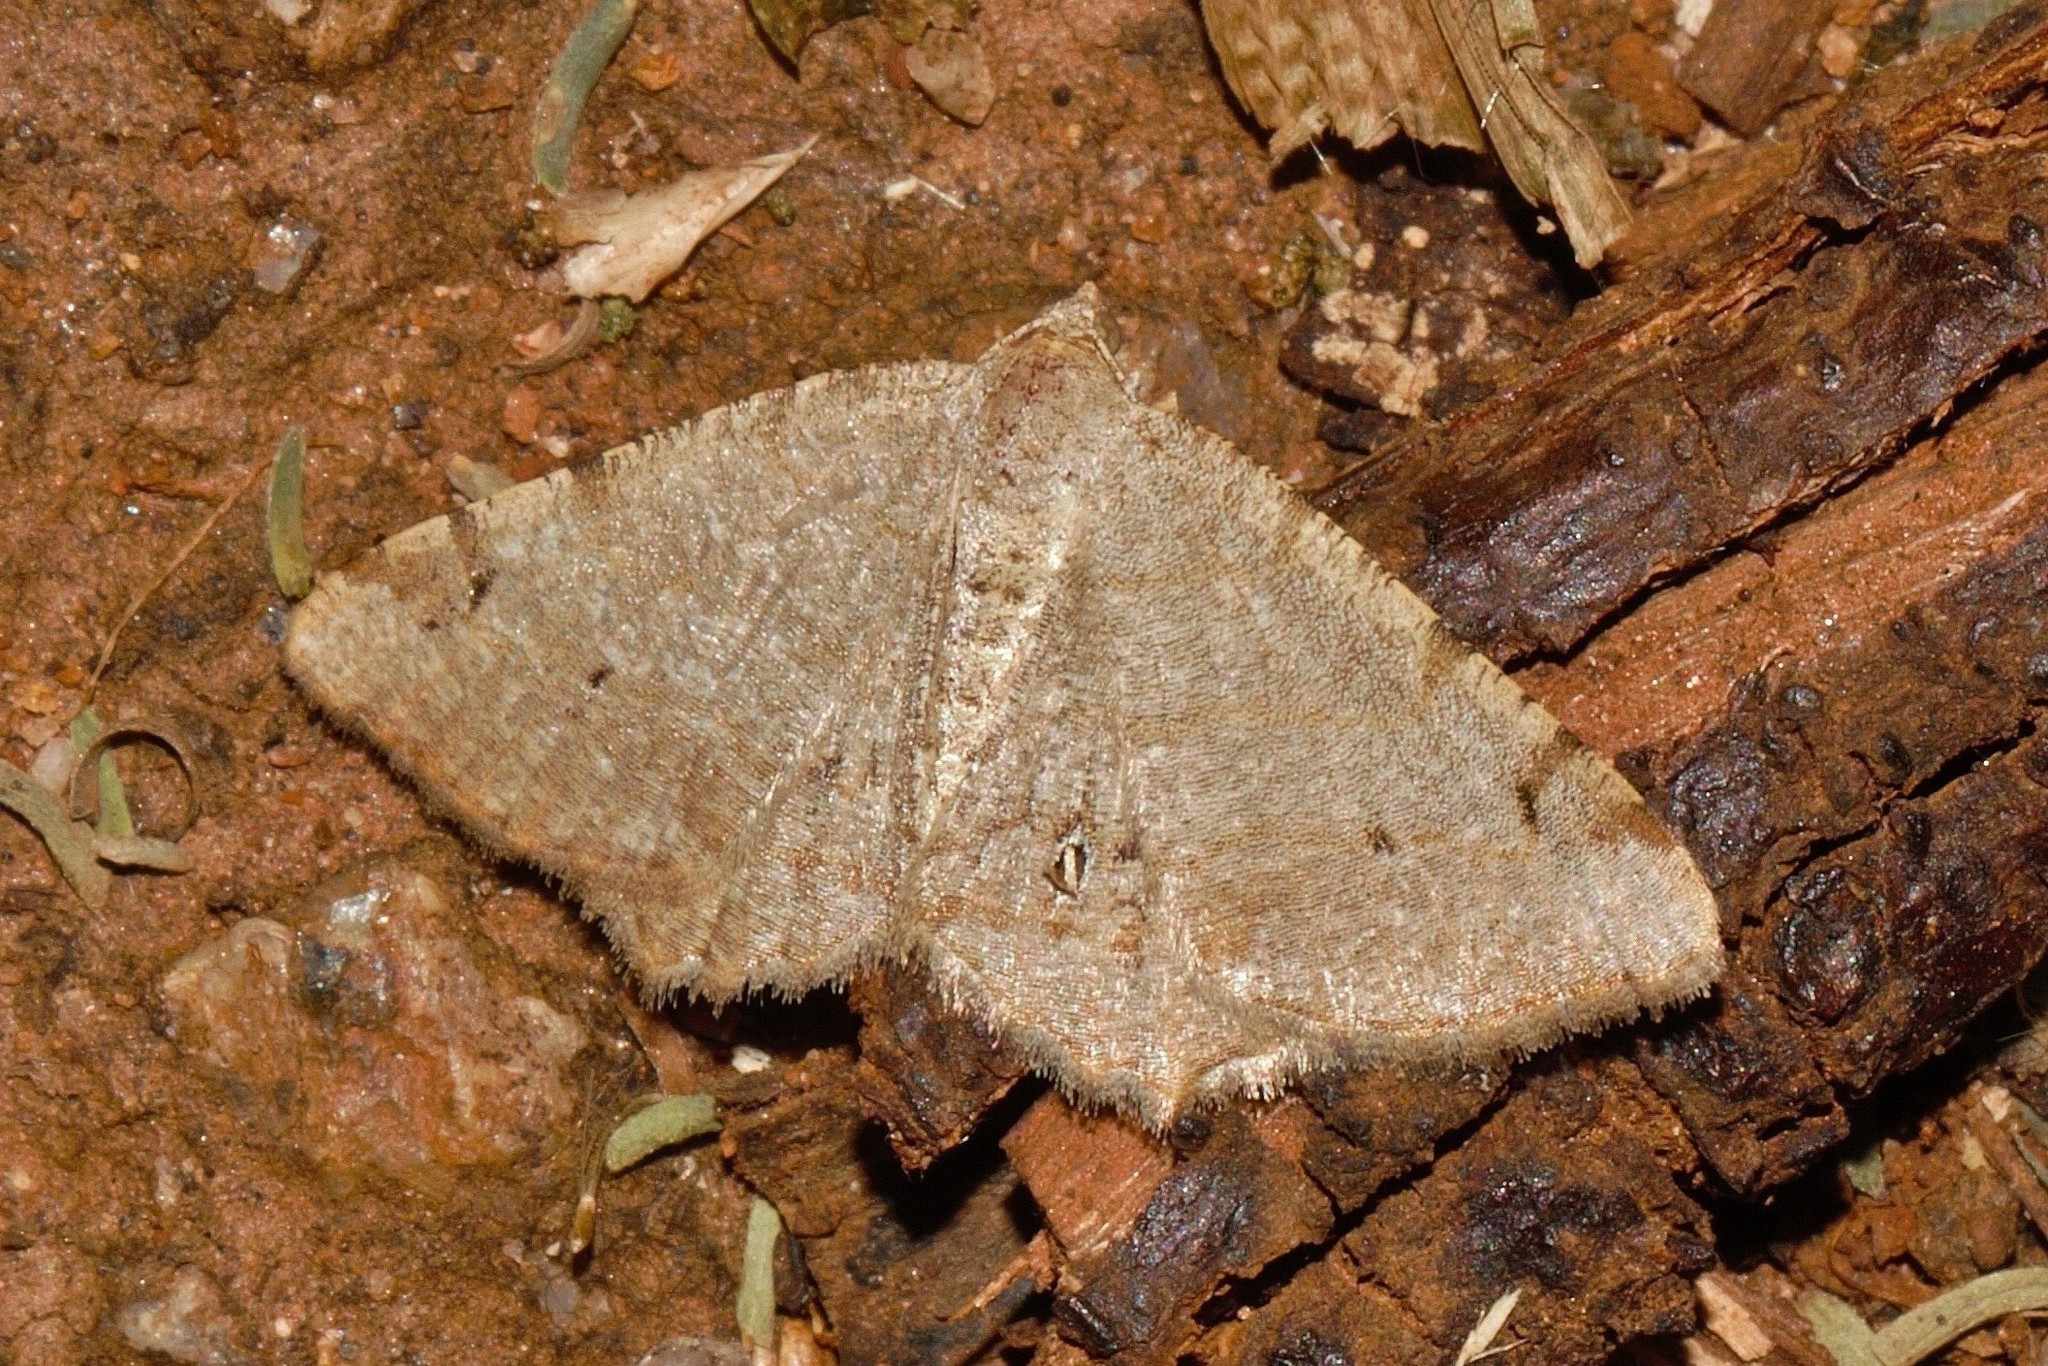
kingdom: Animalia
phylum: Arthropoda
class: Insecta
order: Lepidoptera
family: Geometridae
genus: Acanthovalva
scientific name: Acanthovalva inconspicuaria
